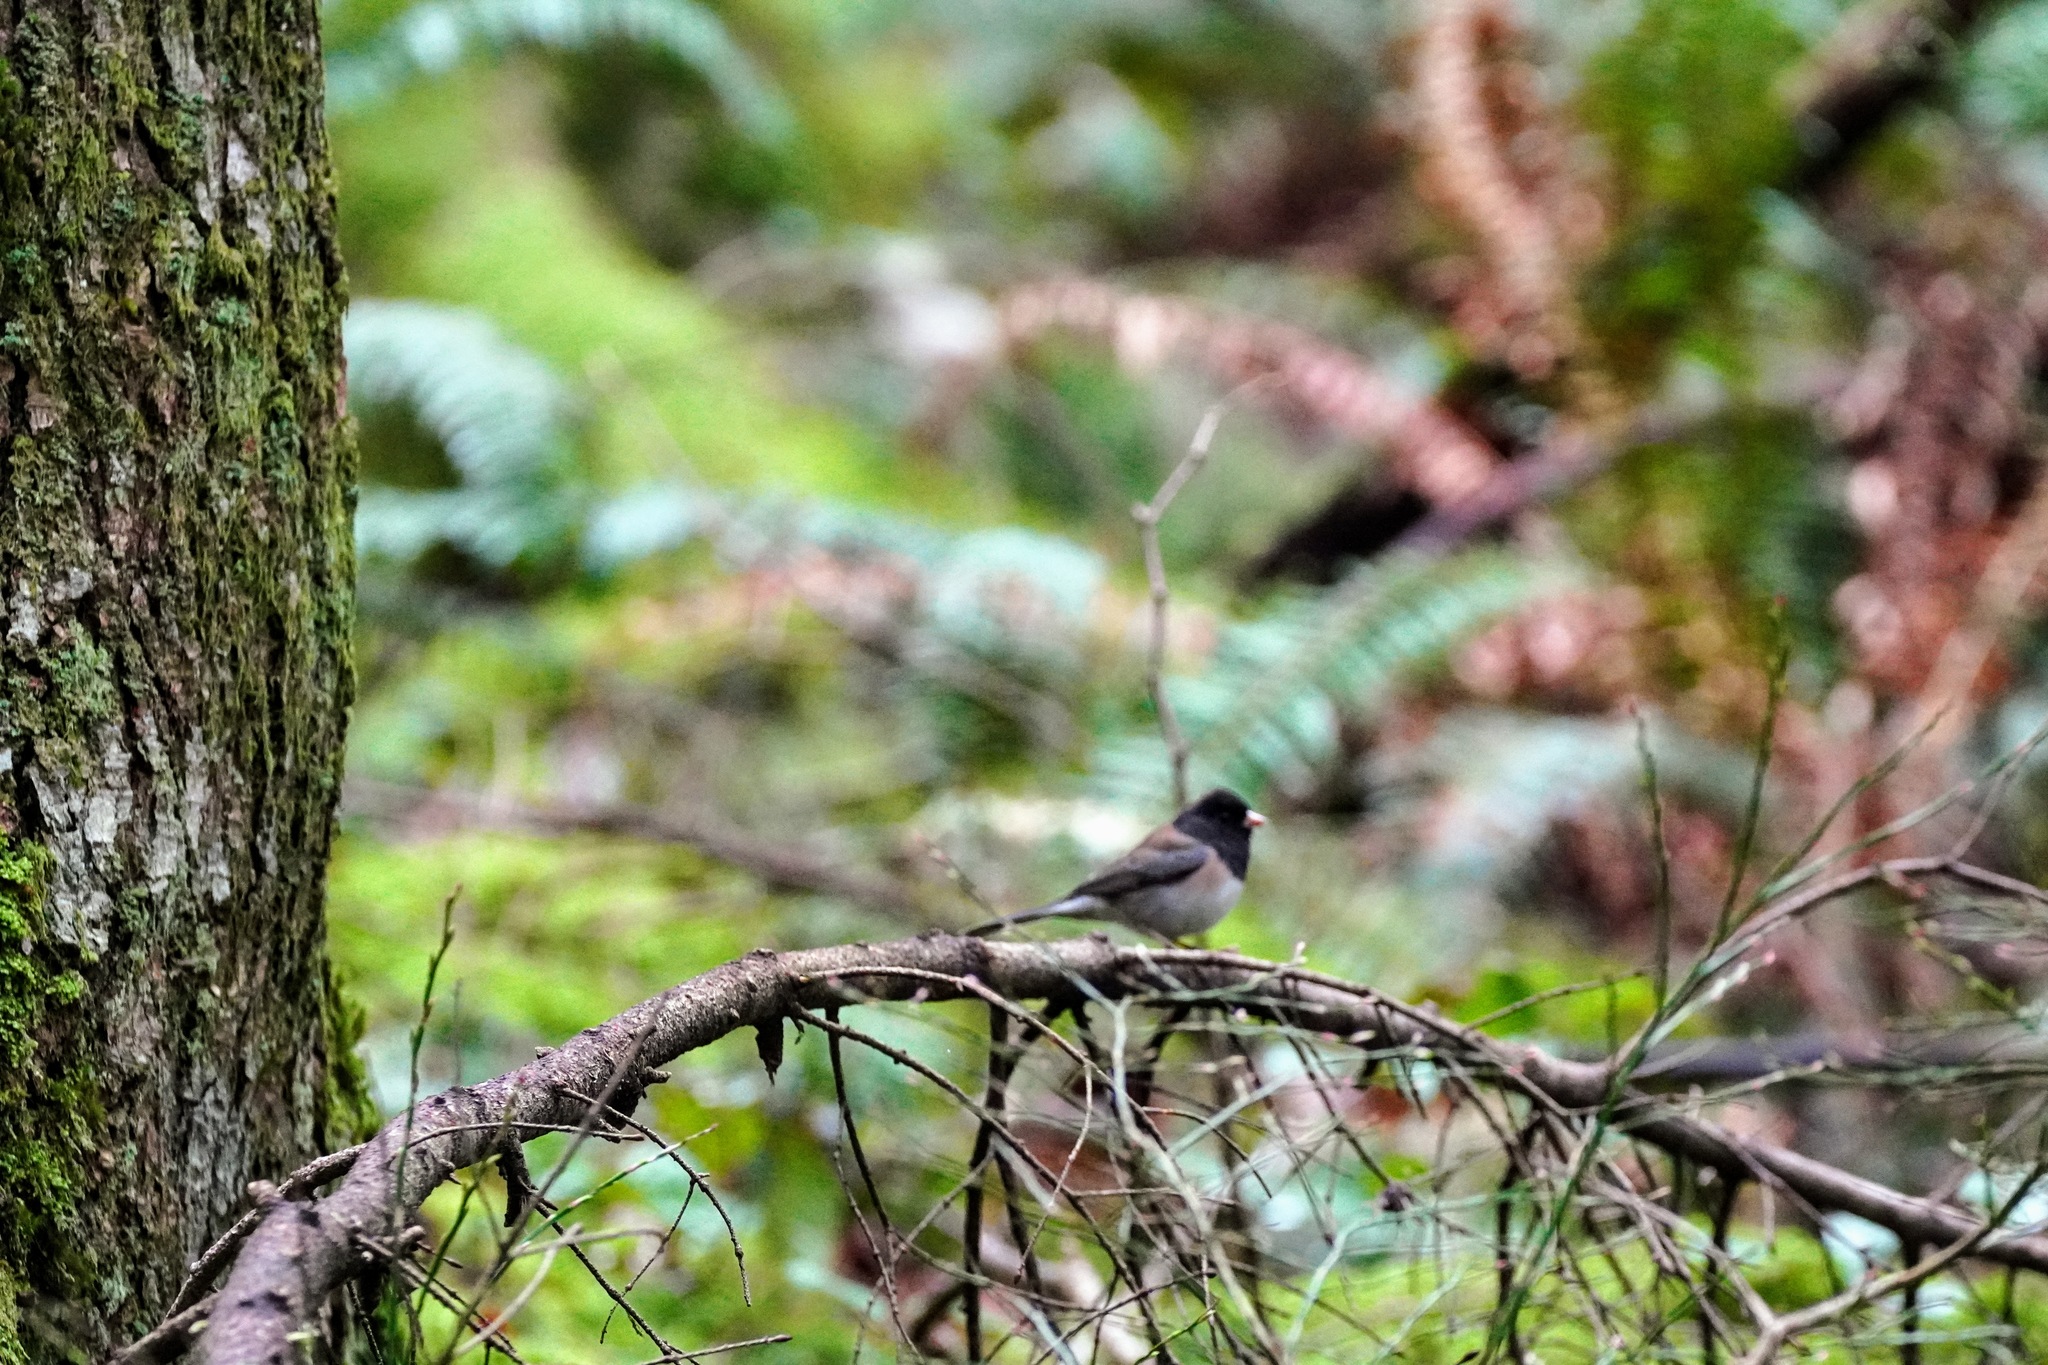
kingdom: Animalia
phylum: Chordata
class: Aves
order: Passeriformes
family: Passerellidae
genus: Junco
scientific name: Junco hyemalis
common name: Dark-eyed junco
